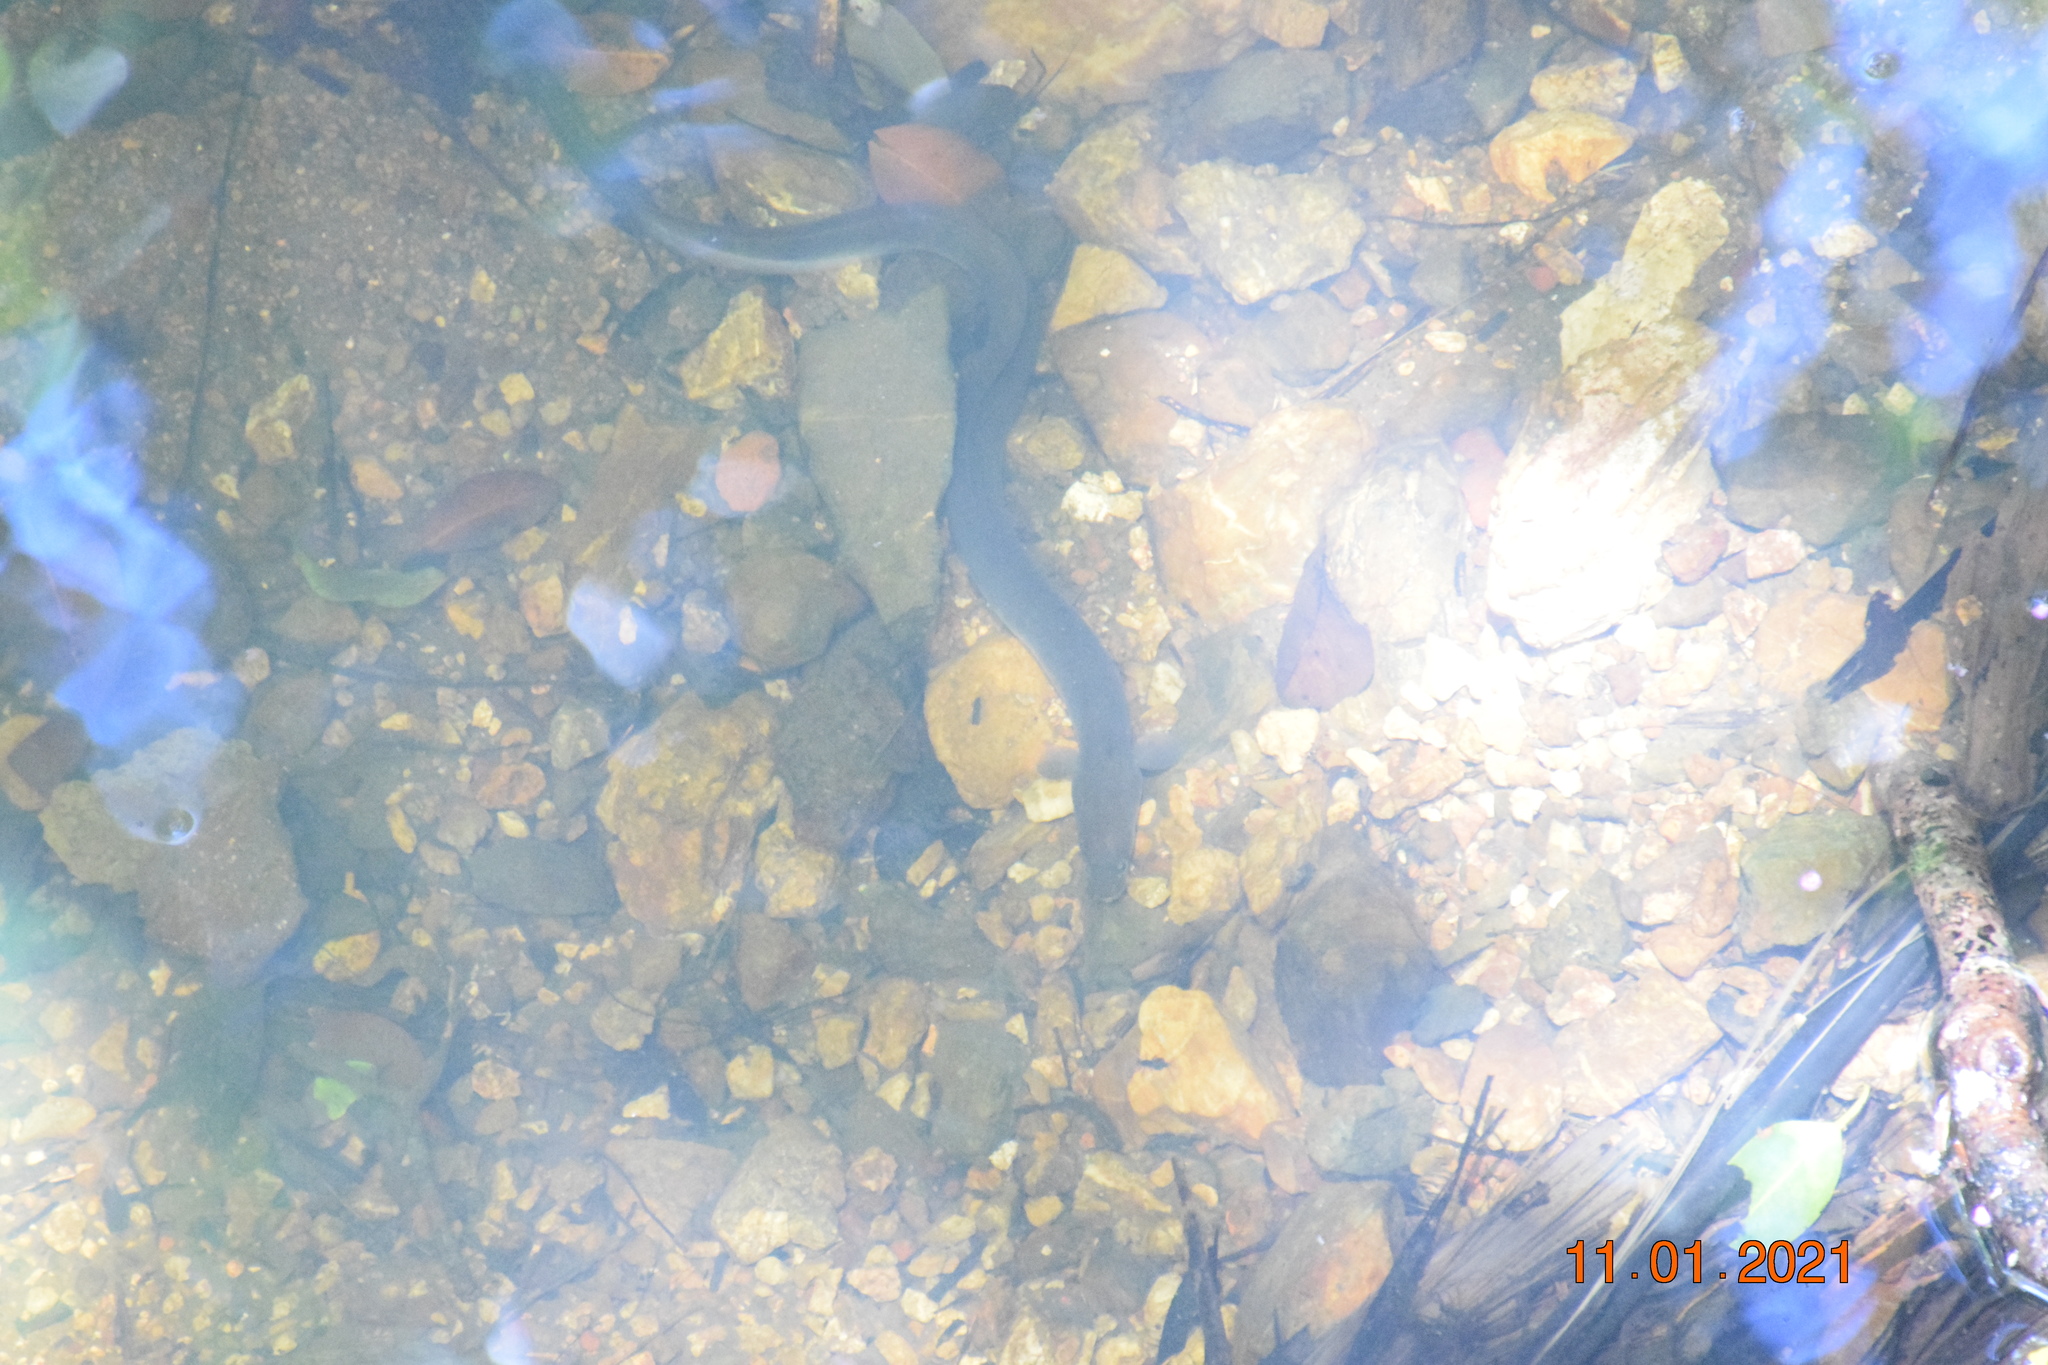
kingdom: Animalia
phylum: Chordata
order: Anguilliformes
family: Anguillidae
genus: Anguilla
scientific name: Anguilla reinhardtii
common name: Longfin eel
